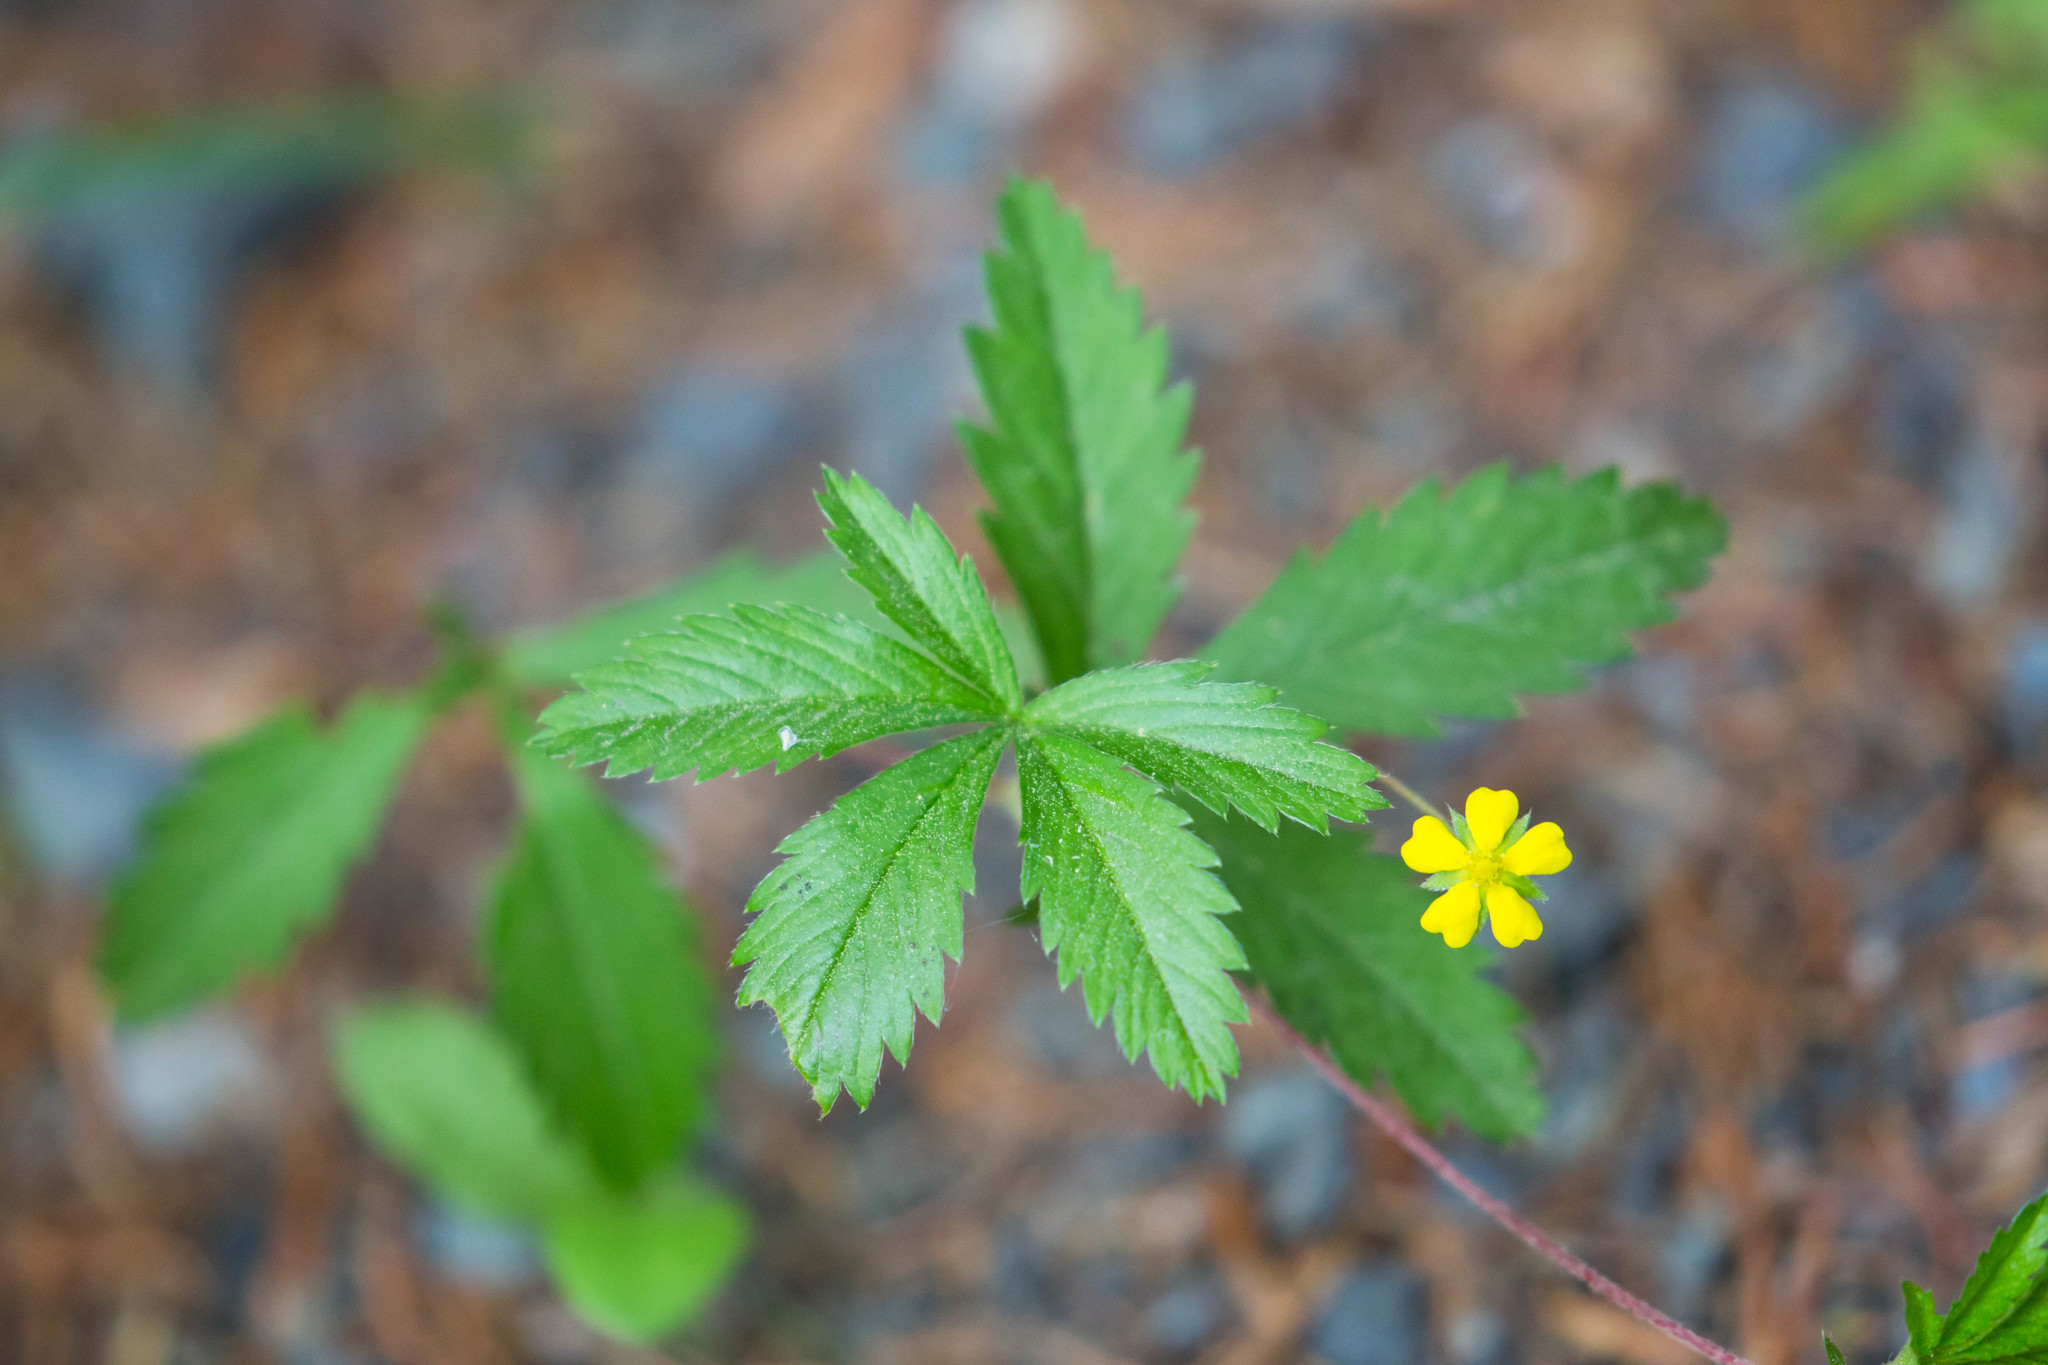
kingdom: Plantae
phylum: Tracheophyta
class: Magnoliopsida
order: Rosales
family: Rosaceae
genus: Potentilla
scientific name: Potentilla simplex
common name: Old field cinquefoil
